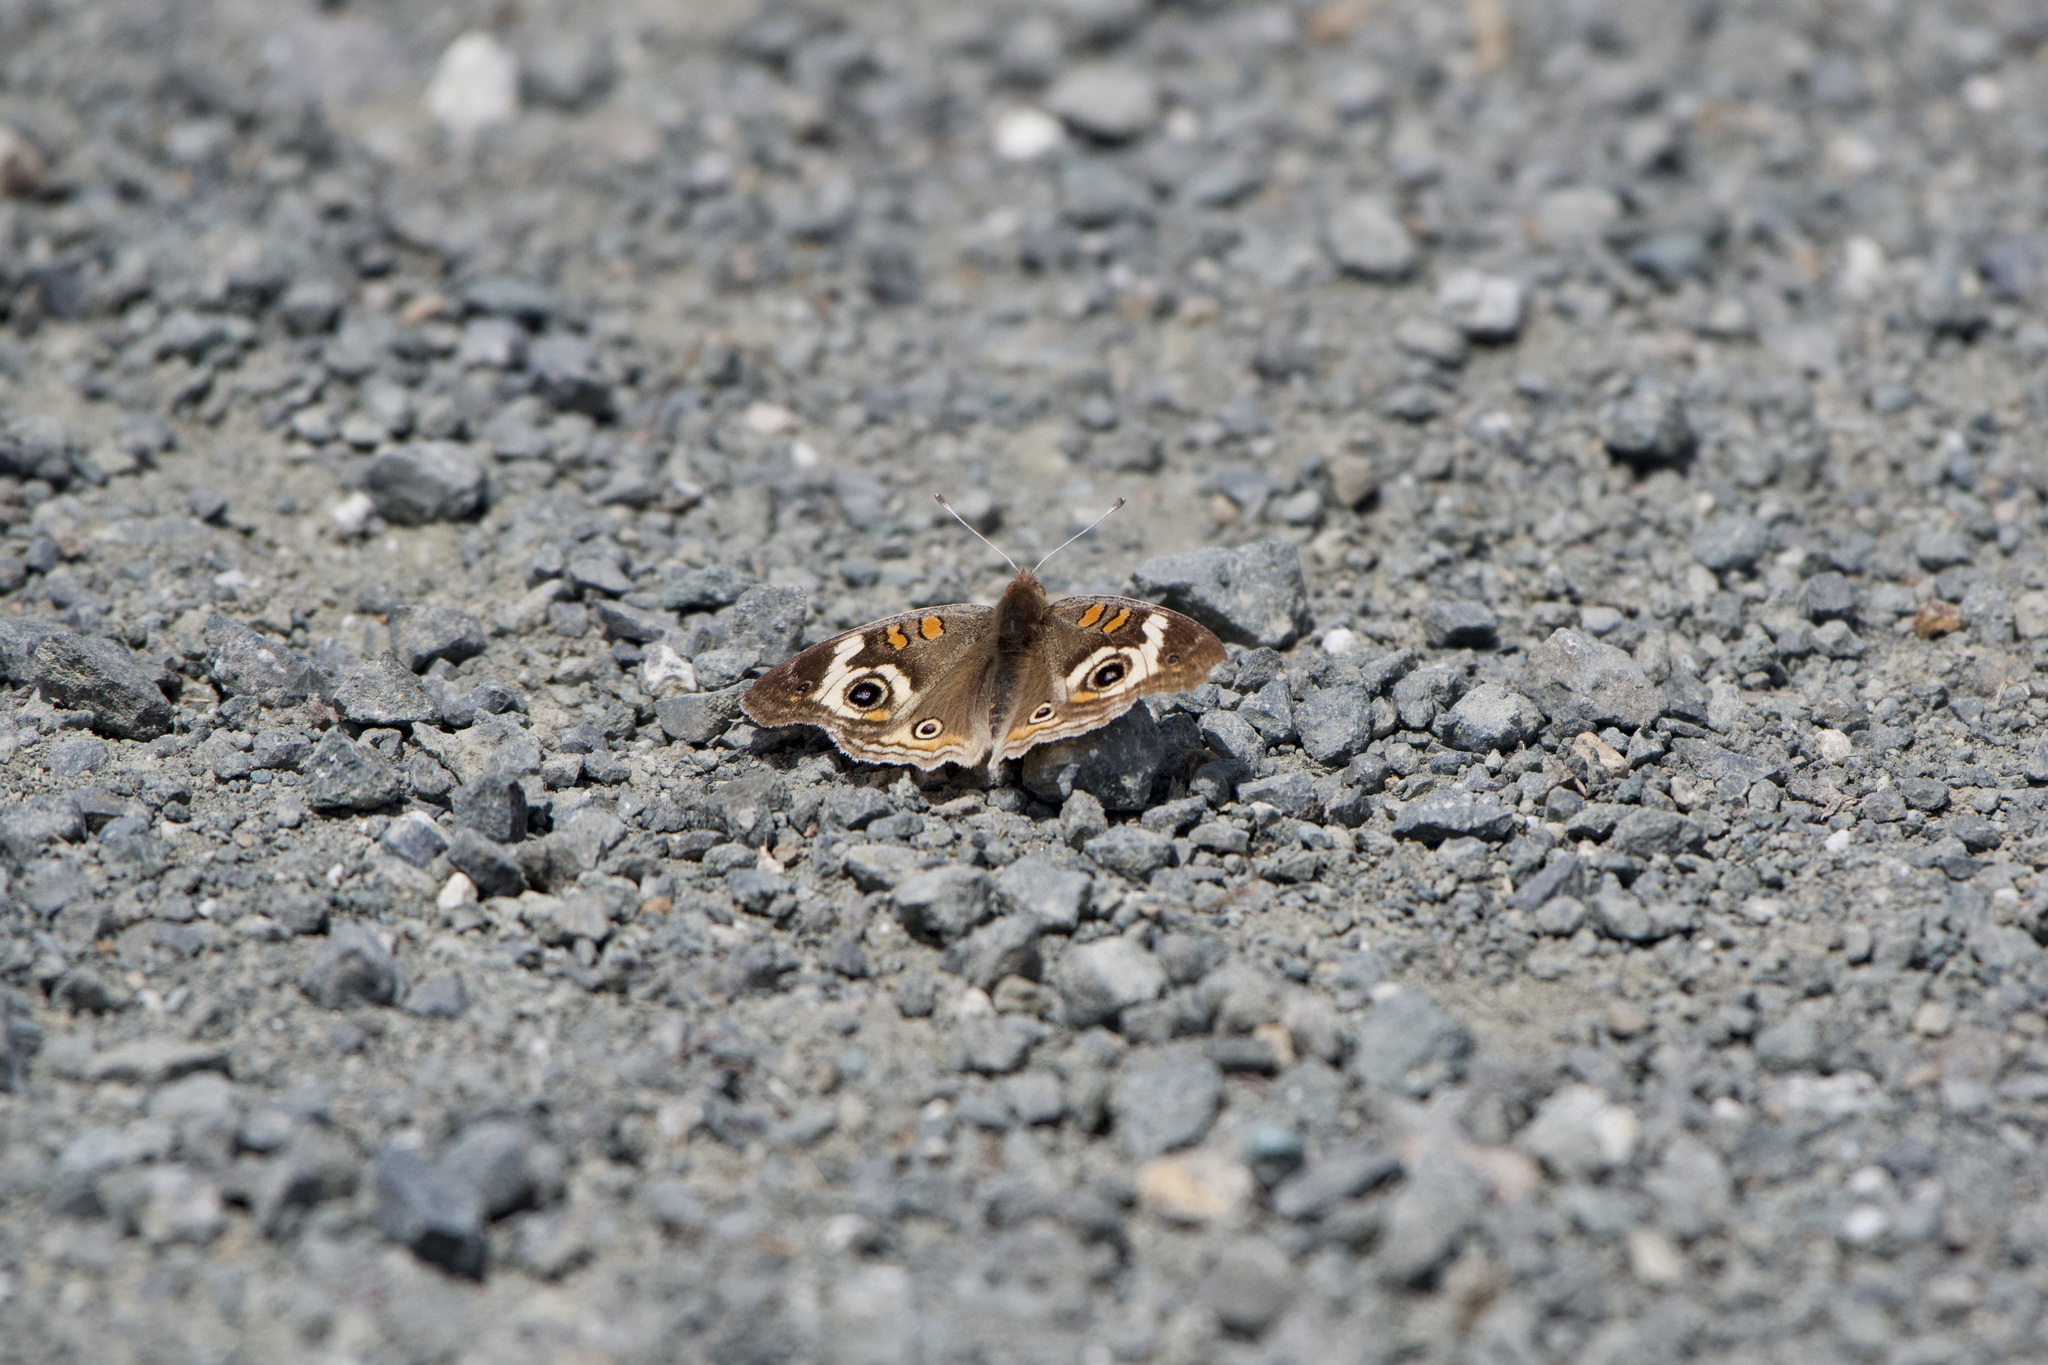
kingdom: Animalia
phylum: Arthropoda
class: Insecta
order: Lepidoptera
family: Nymphalidae
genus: Junonia
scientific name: Junonia grisea
